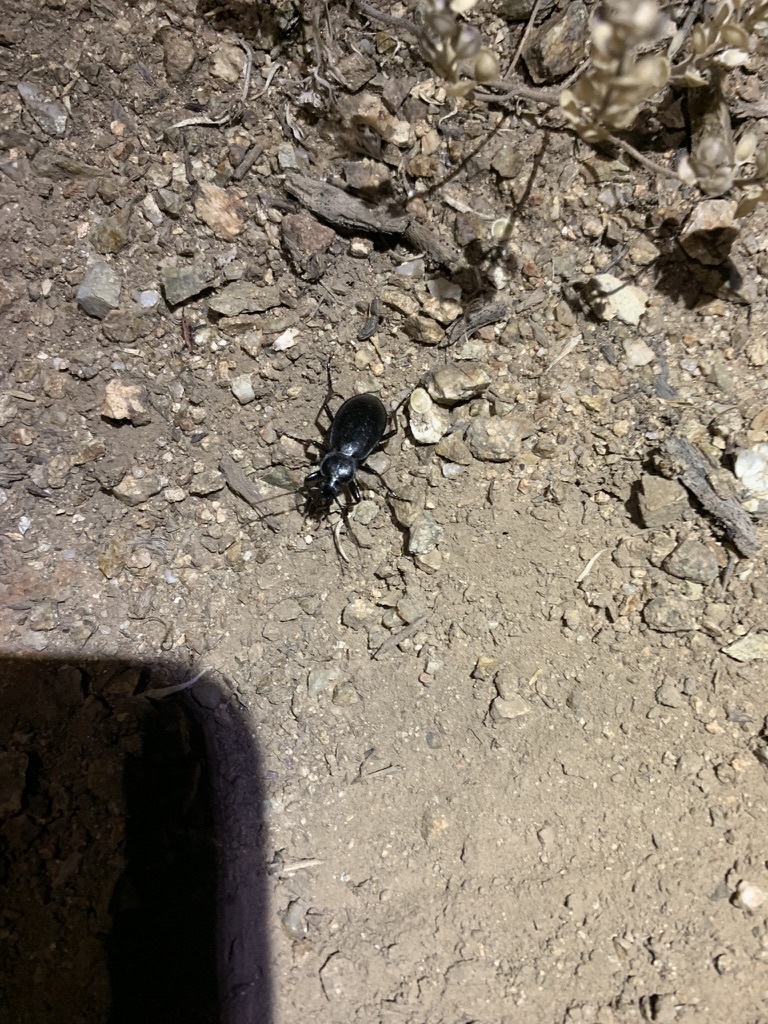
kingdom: Animalia
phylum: Arthropoda
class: Insecta
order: Coleoptera
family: Carabidae
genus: Carabus
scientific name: Carabus taedatus
